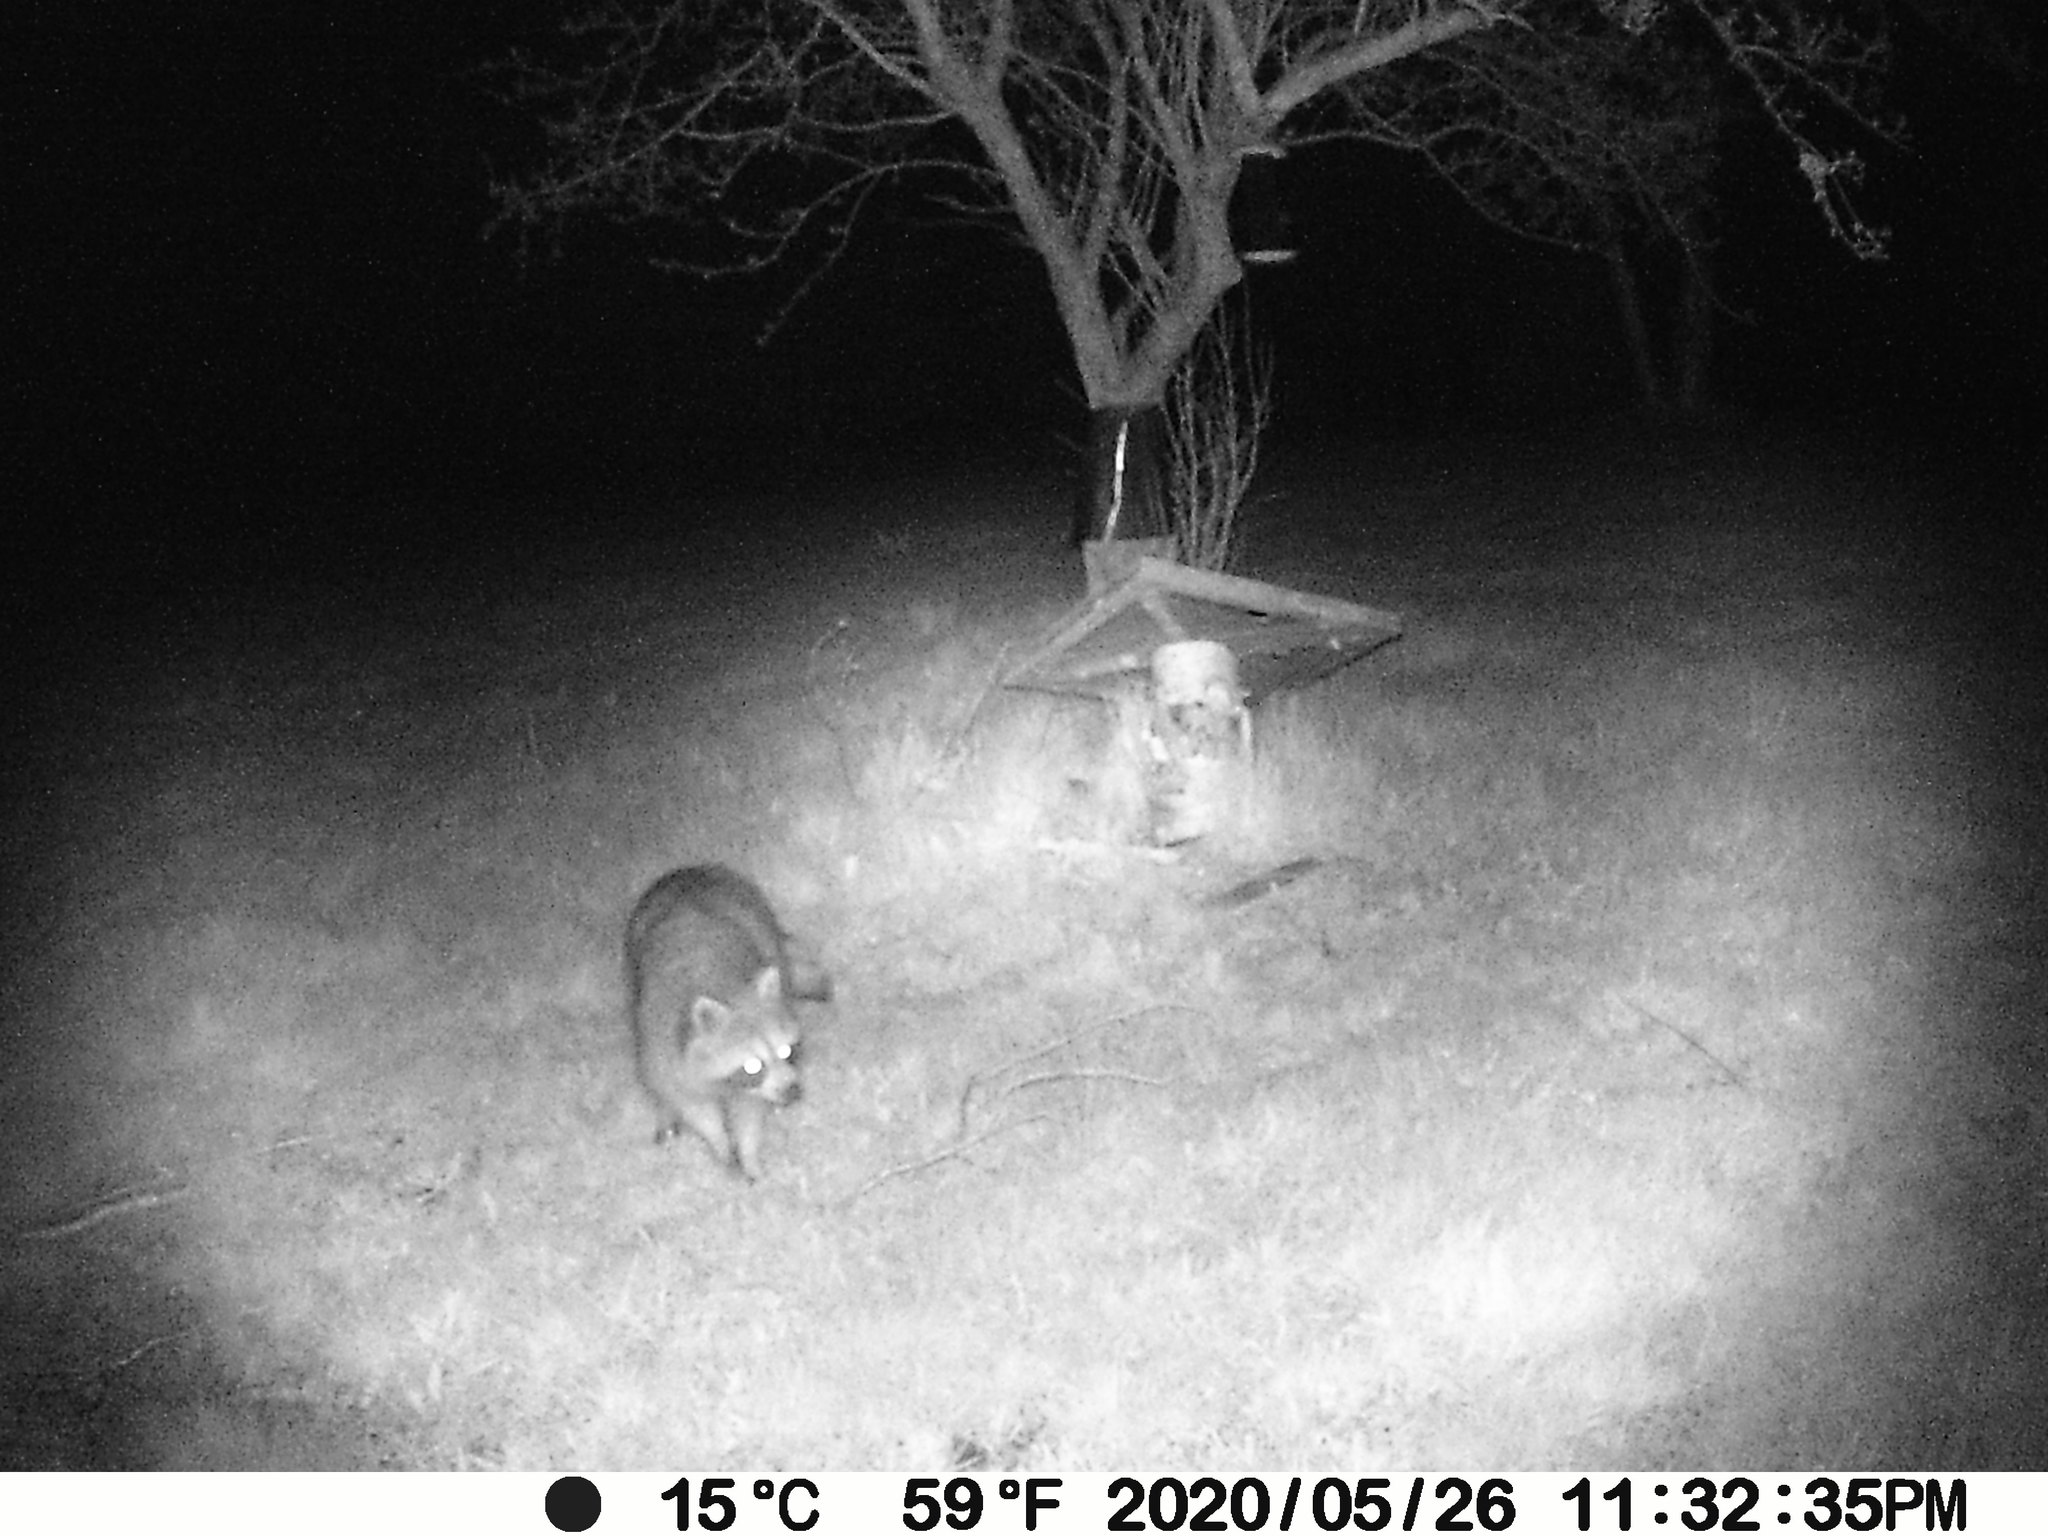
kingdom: Animalia
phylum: Chordata
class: Mammalia
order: Carnivora
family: Procyonidae
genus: Procyon
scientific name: Procyon lotor
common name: Raccoon
